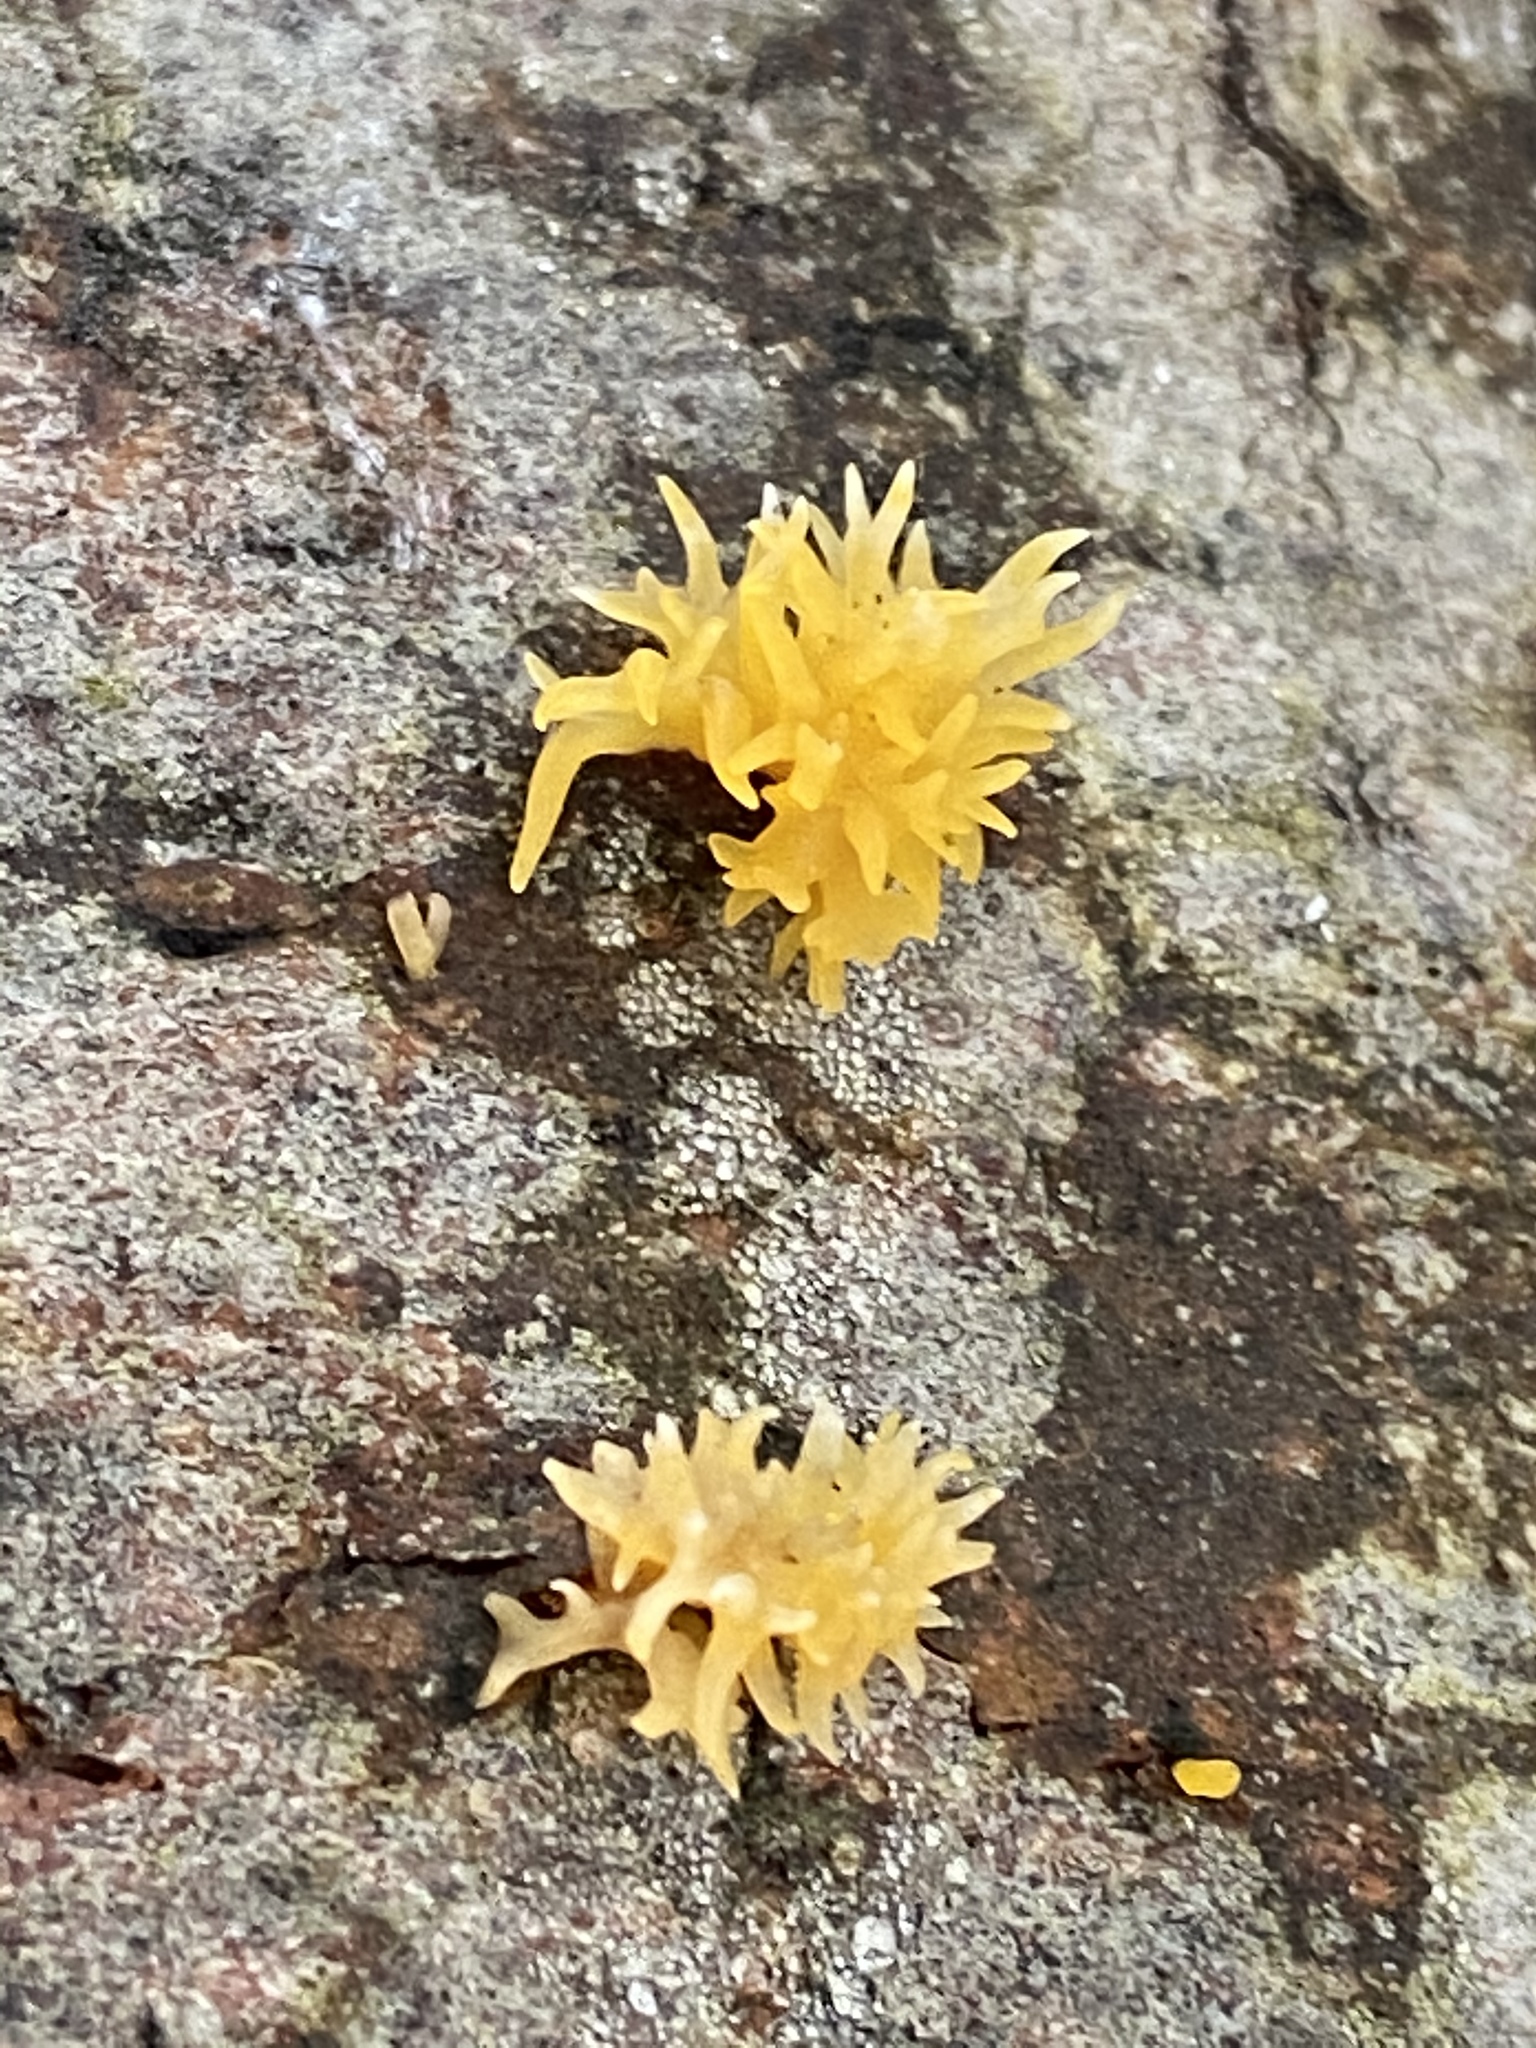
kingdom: Fungi
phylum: Basidiomycota
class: Dacrymycetes
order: Dacrymycetales
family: Dacrymycetaceae
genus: Calocera
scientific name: Calocera cornea
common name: Small stagshorn
